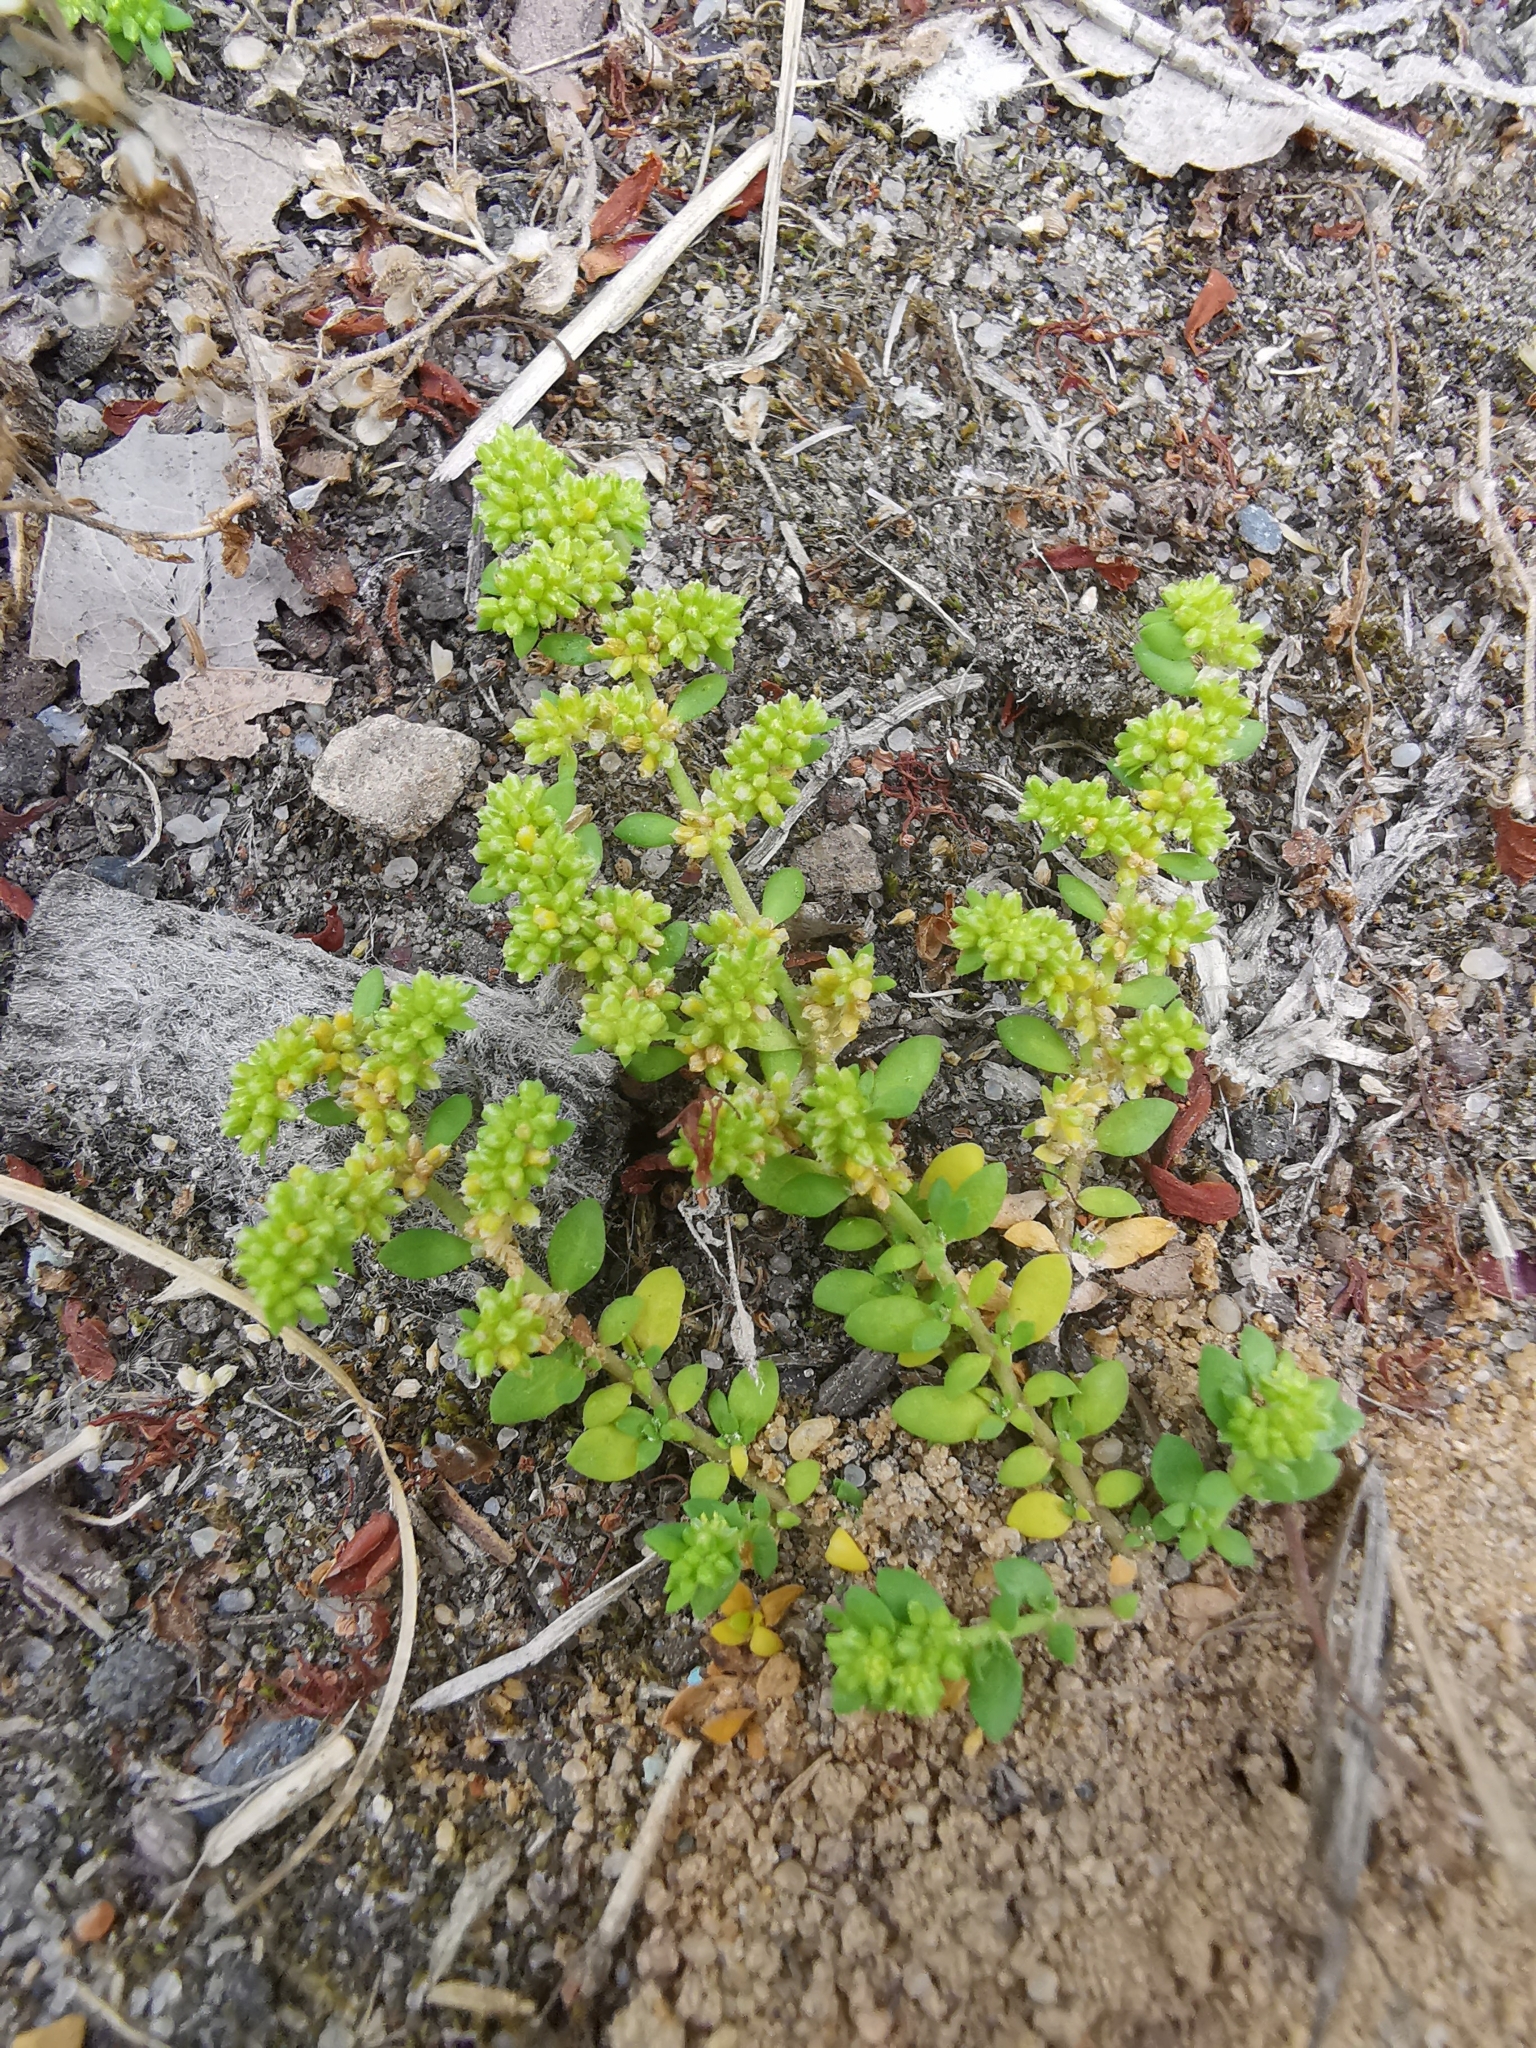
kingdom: Plantae
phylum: Tracheophyta
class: Magnoliopsida
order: Caryophyllales
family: Caryophyllaceae
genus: Herniaria
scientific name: Herniaria glabra
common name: Smooth rupturewort
